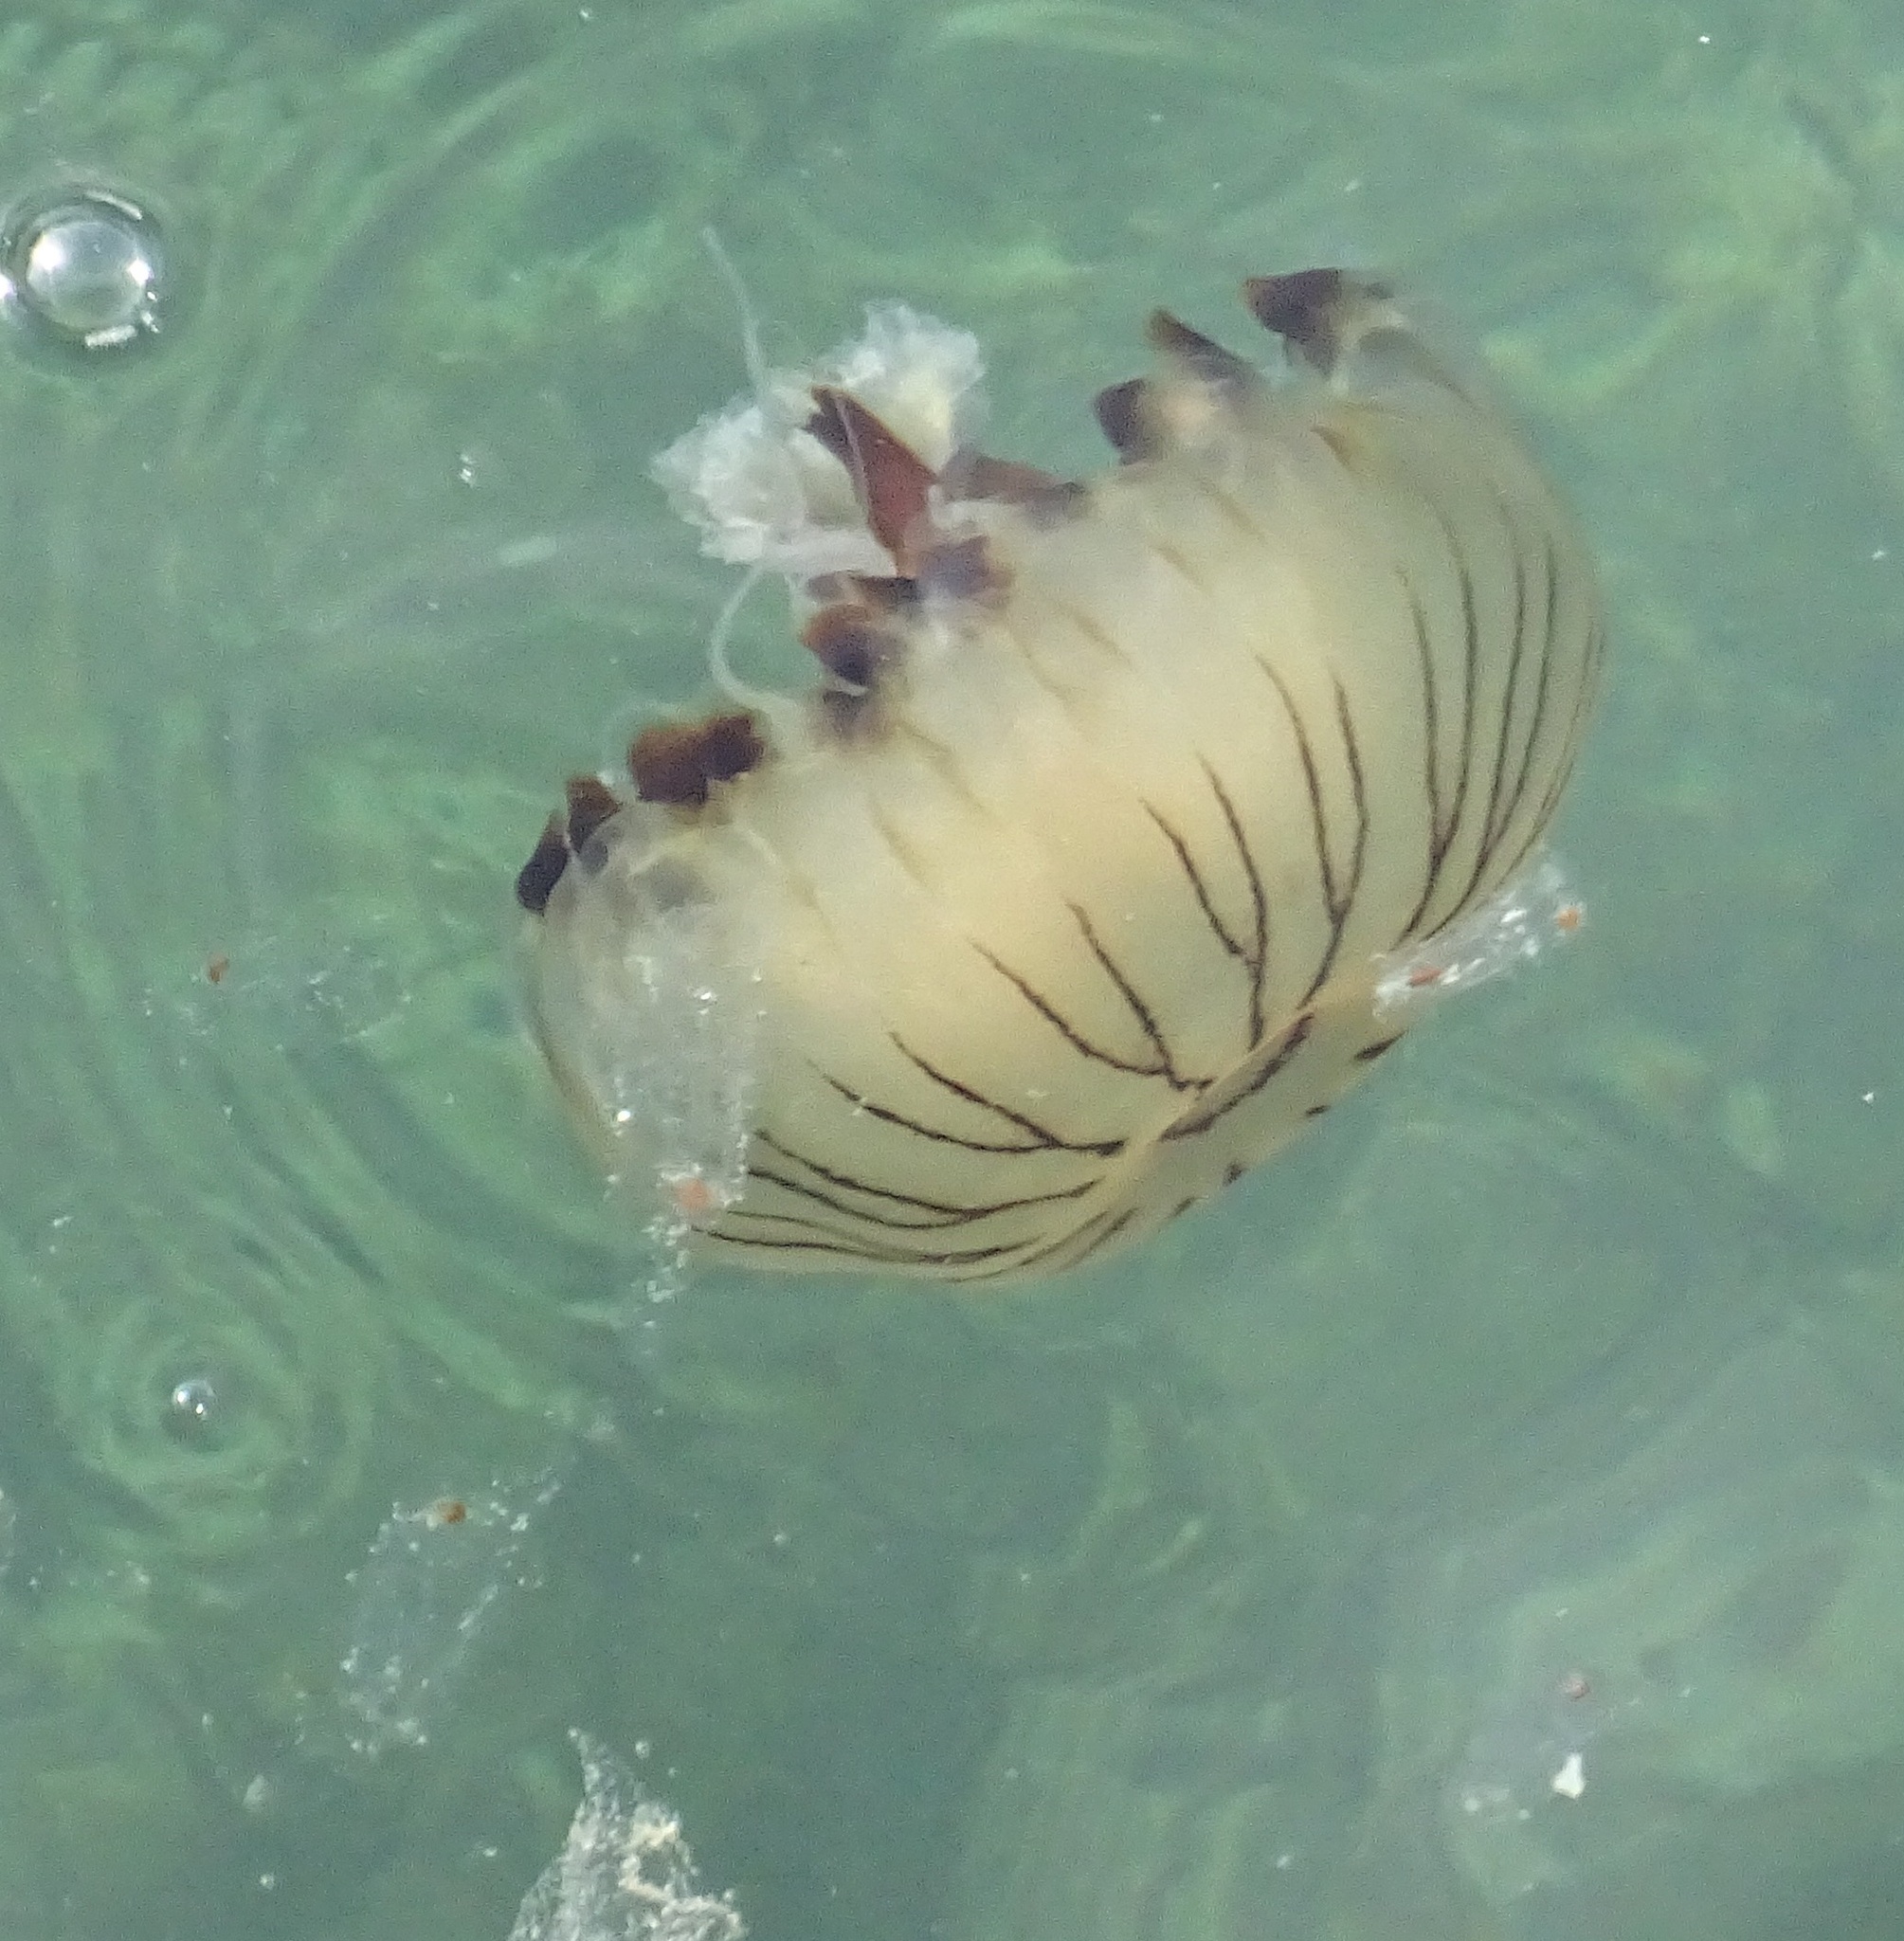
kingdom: Animalia
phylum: Cnidaria
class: Scyphozoa
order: Semaeostomeae
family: Pelagiidae
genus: Chrysaora
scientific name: Chrysaora hysoscella
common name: Compass jellyfish
